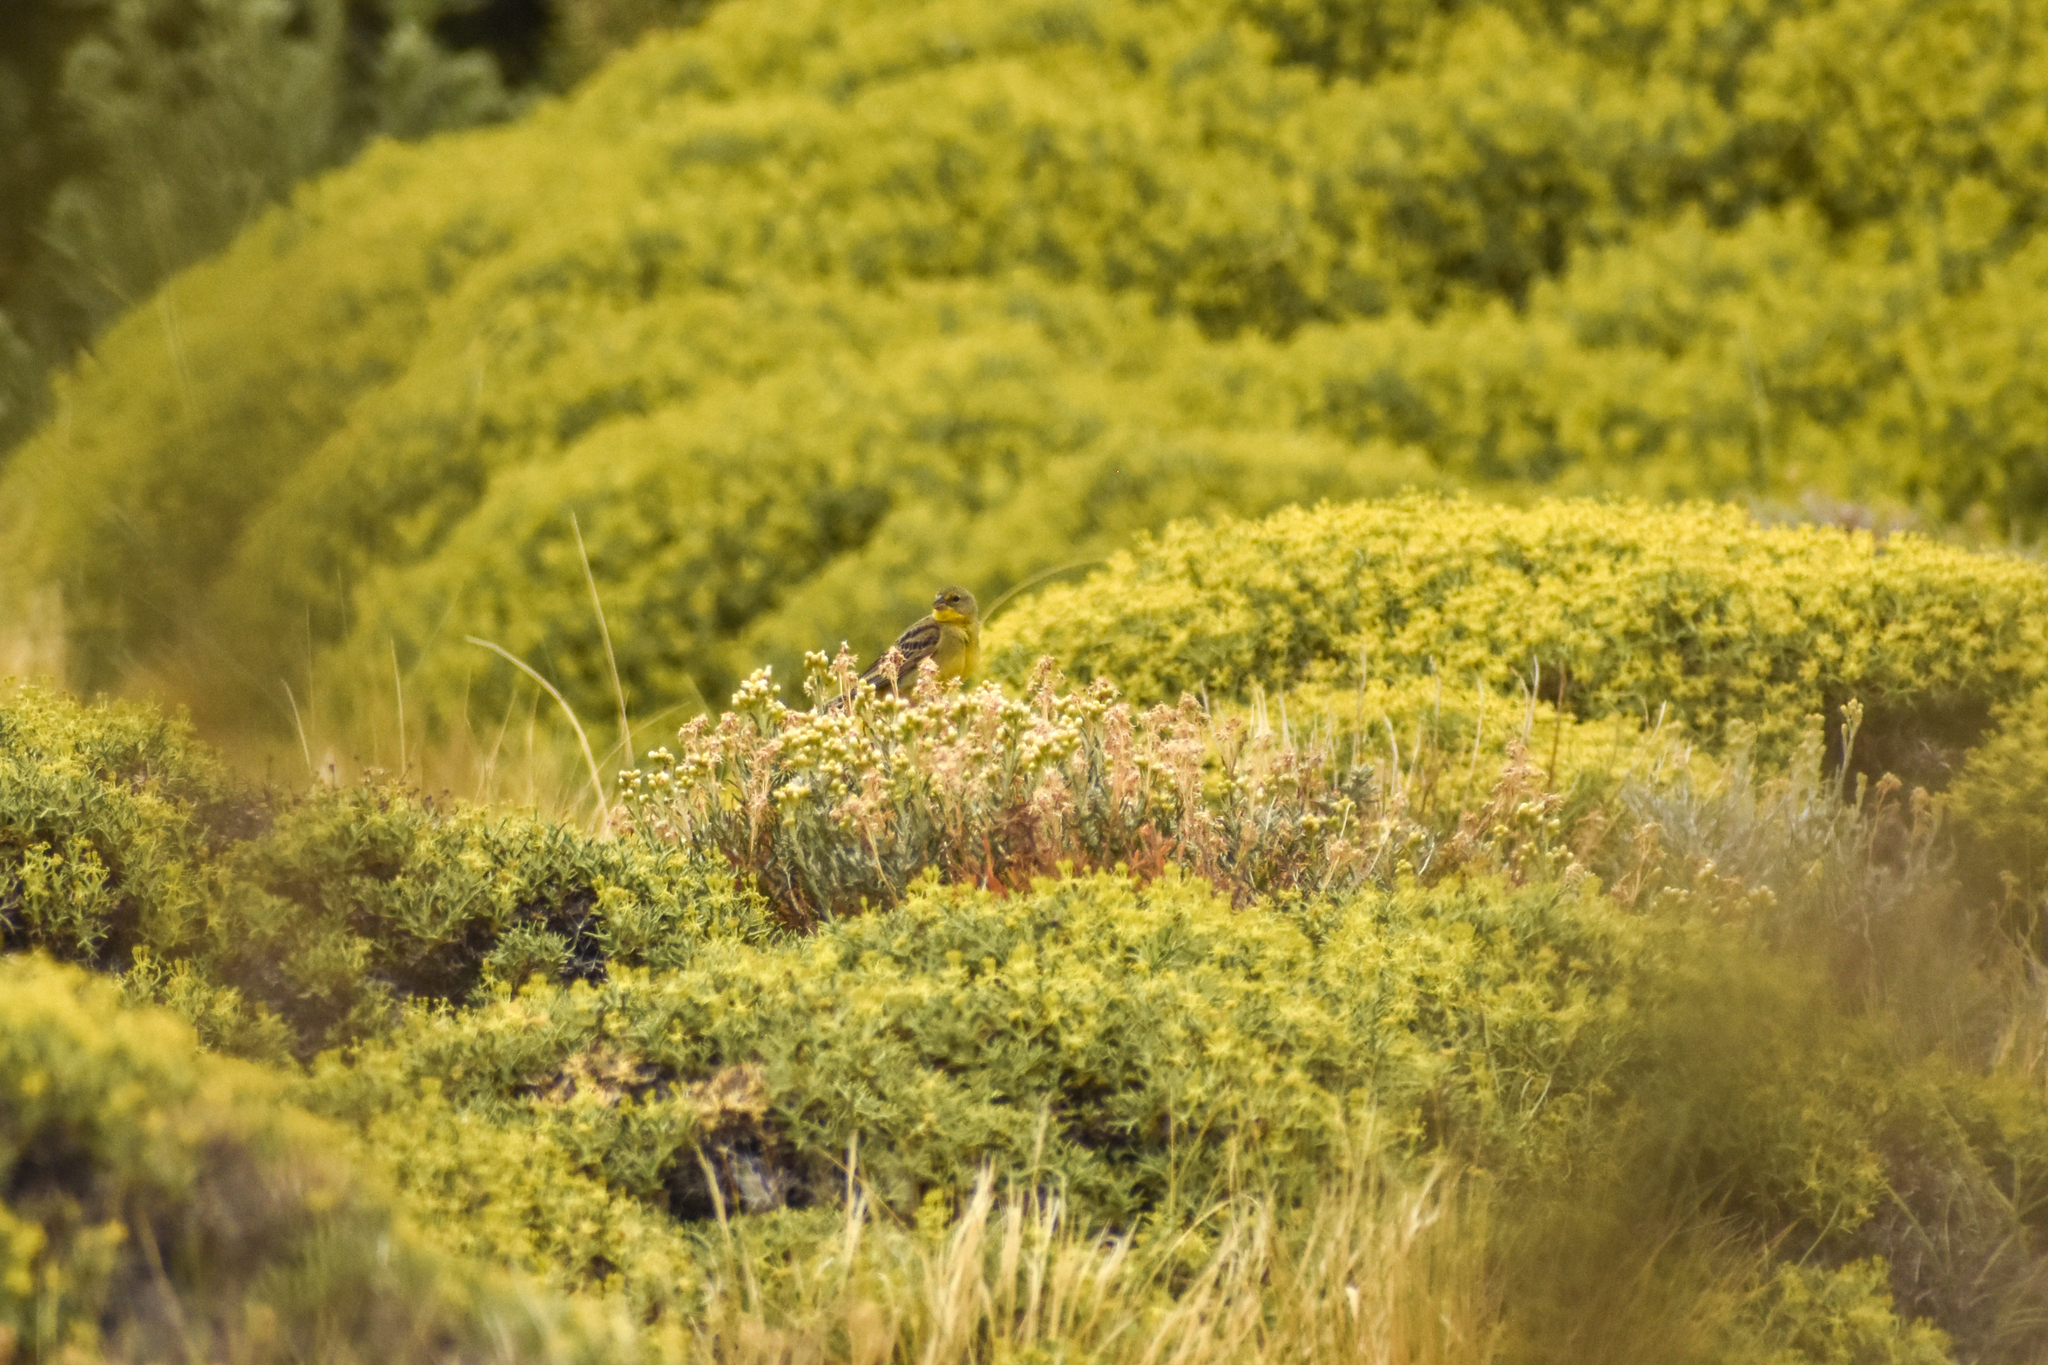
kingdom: Animalia
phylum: Chordata
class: Aves
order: Passeriformes
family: Thraupidae
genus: Sicalis
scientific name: Sicalis luteola
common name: Grassland yellow-finch
